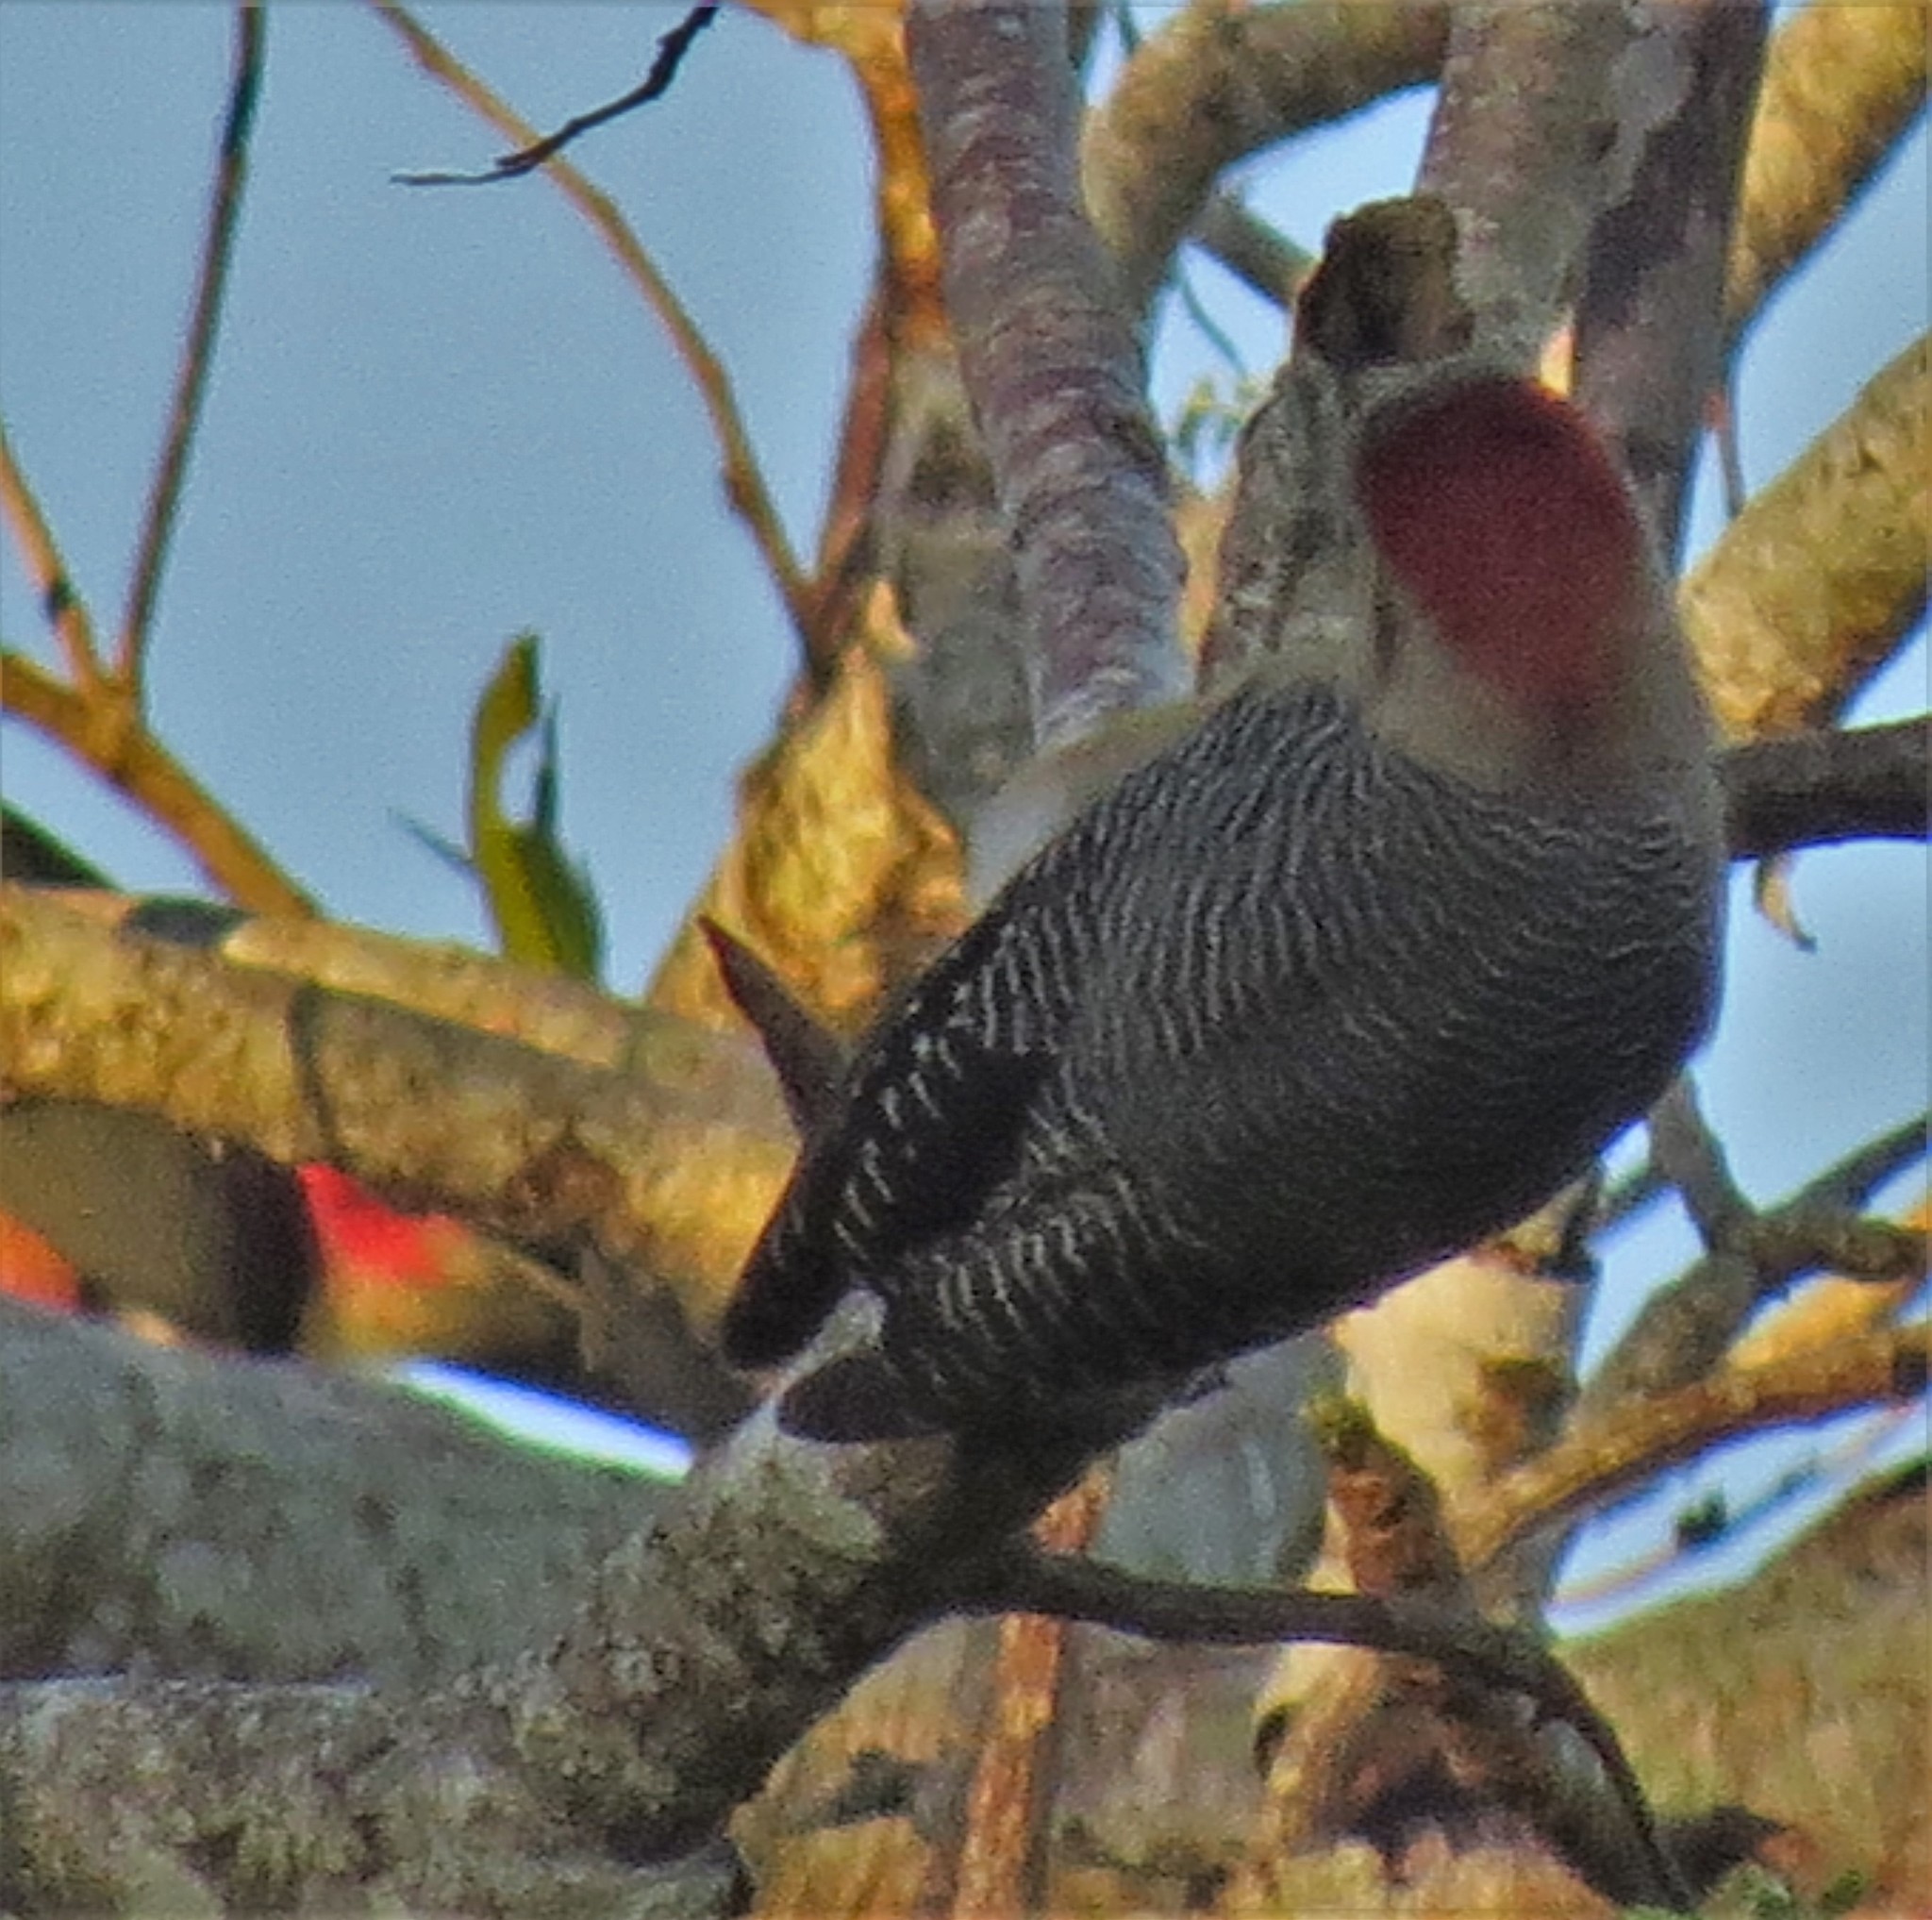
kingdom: Animalia
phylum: Chordata
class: Aves
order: Piciformes
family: Picidae
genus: Melanerpes
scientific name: Melanerpes aurifrons
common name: Golden-fronted woodpecker
